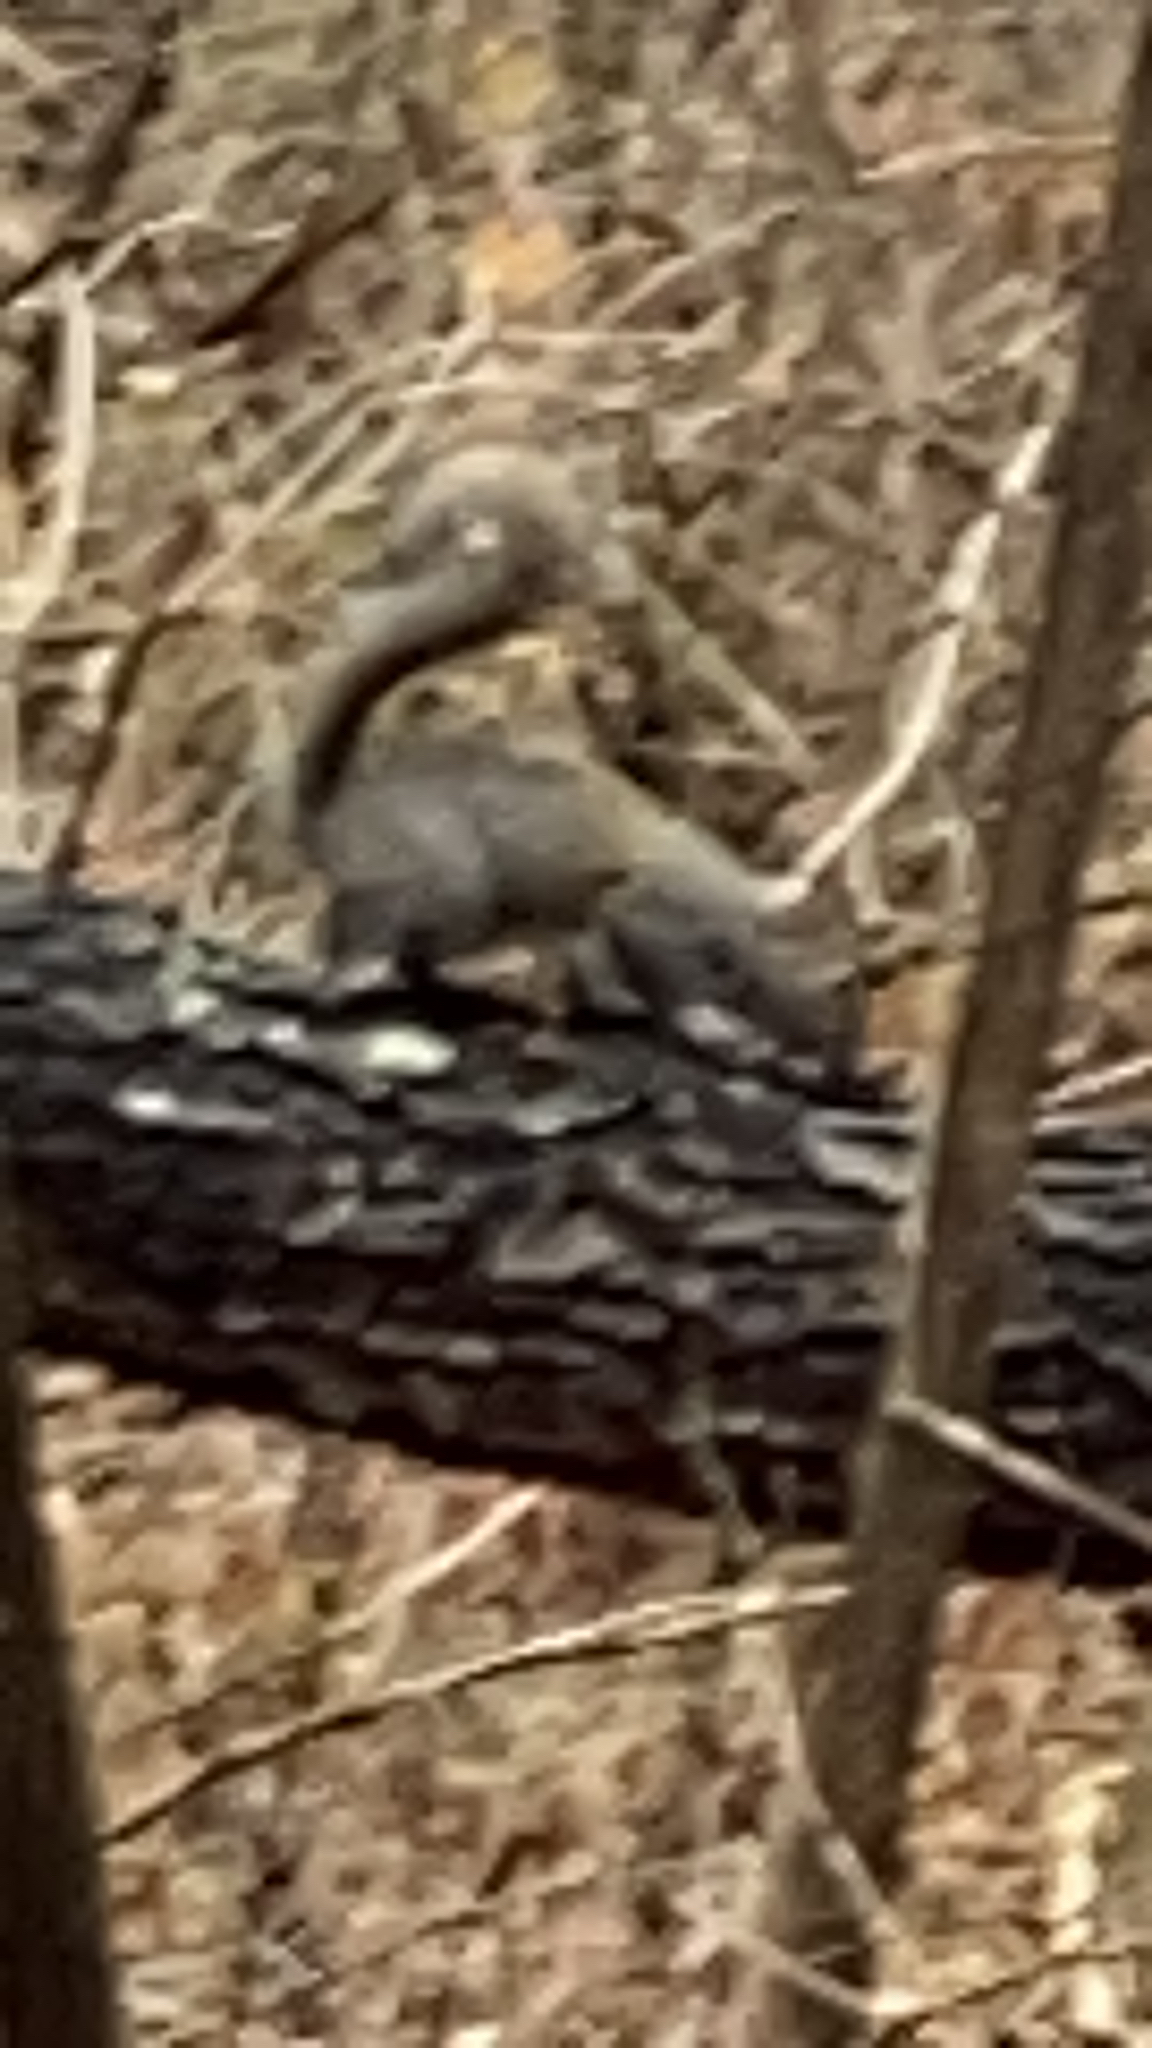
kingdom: Animalia
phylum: Chordata
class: Mammalia
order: Rodentia
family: Sciuridae
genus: Sciurus
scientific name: Sciurus carolinensis
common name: Eastern gray squirrel
